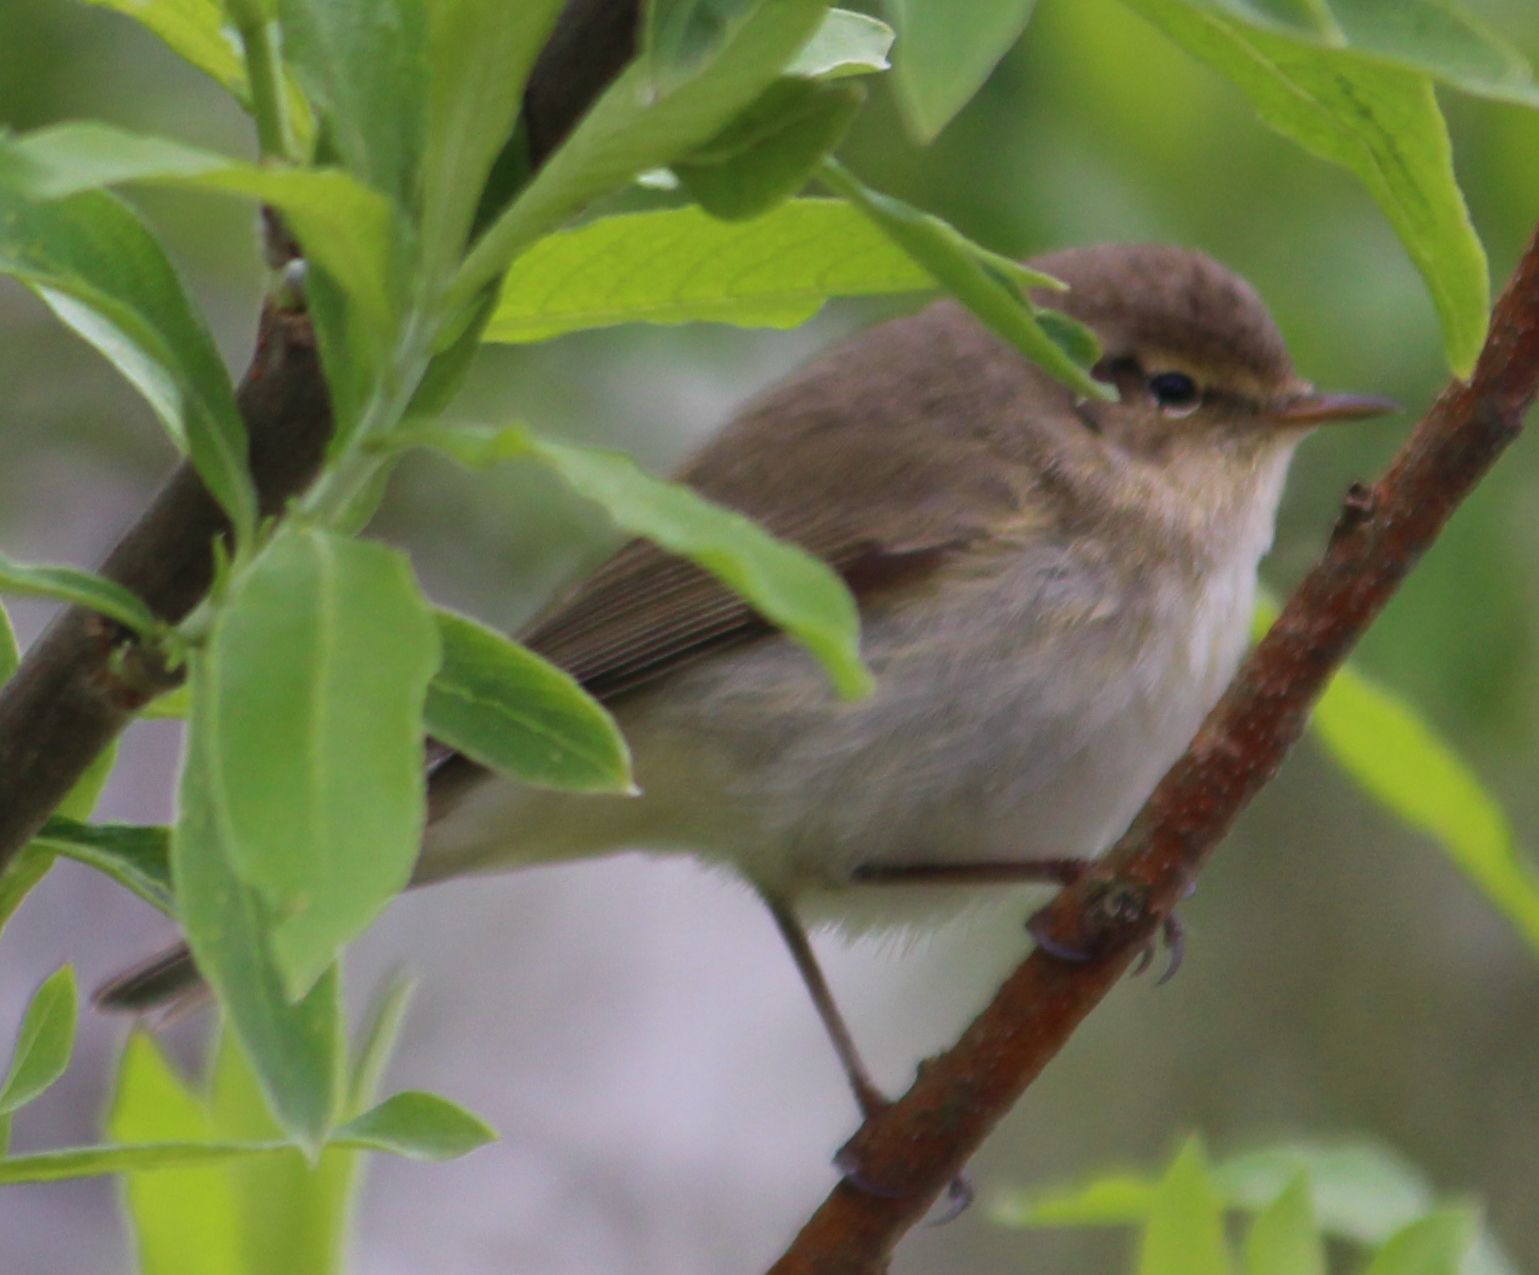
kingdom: Animalia
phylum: Chordata
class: Aves
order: Passeriformes
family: Phylloscopidae
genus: Phylloscopus
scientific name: Phylloscopus collybita
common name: Common chiffchaff
